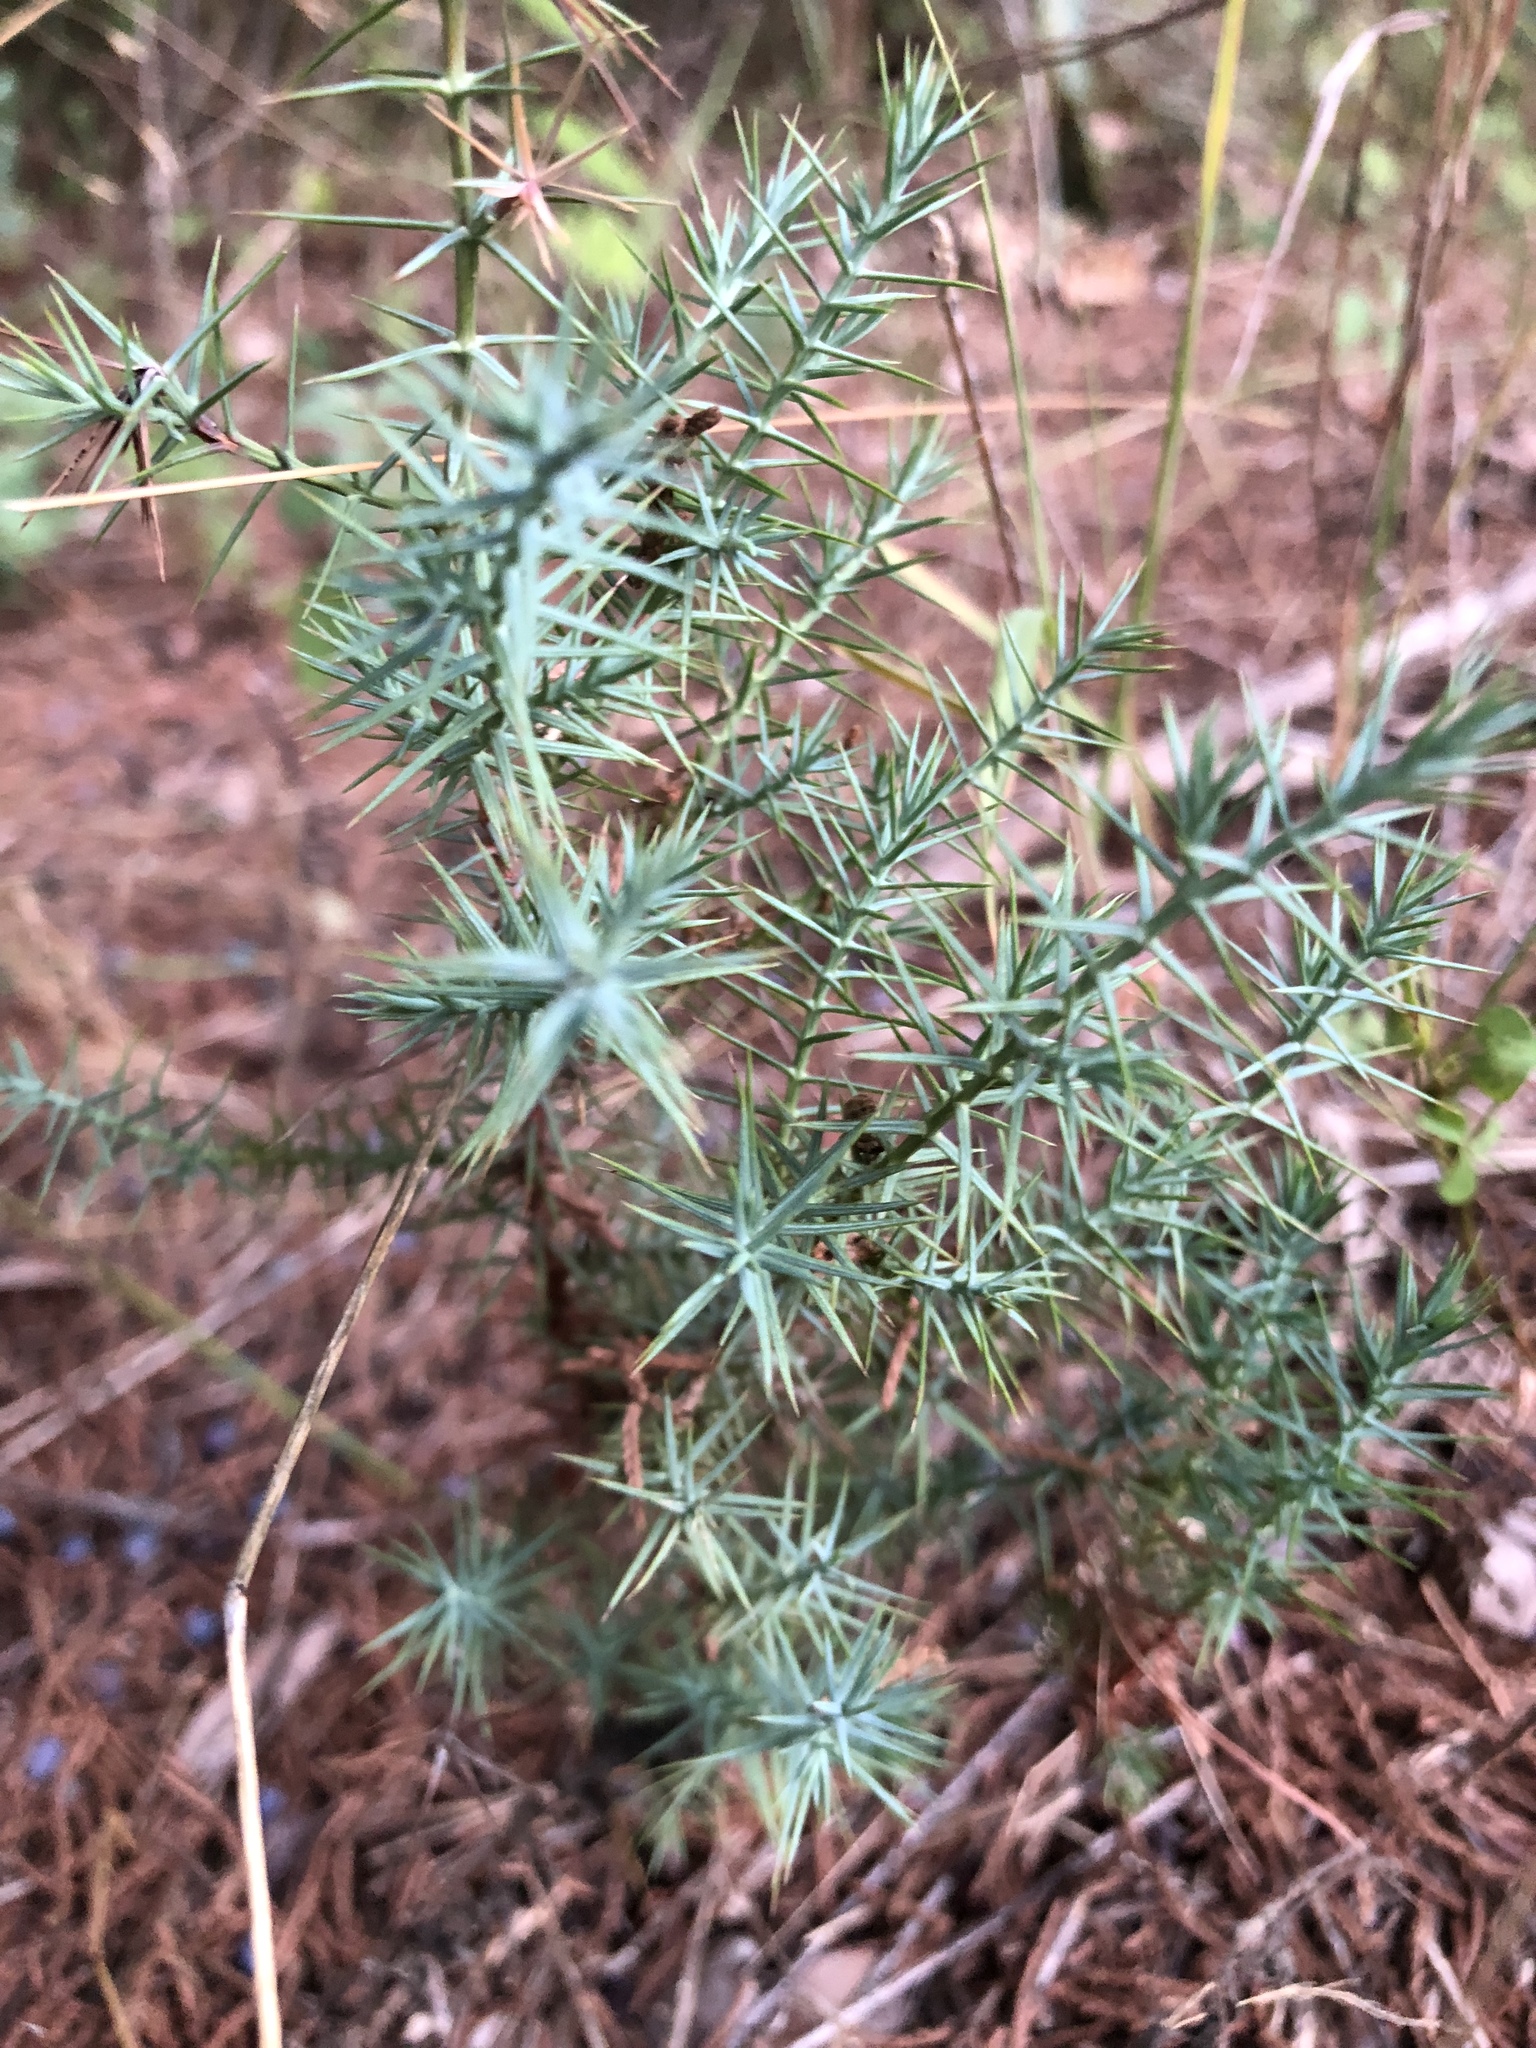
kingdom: Plantae
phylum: Tracheophyta
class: Pinopsida
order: Pinales
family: Cupressaceae
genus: Juniperus
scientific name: Juniperus ashei
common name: Mexican juniper
